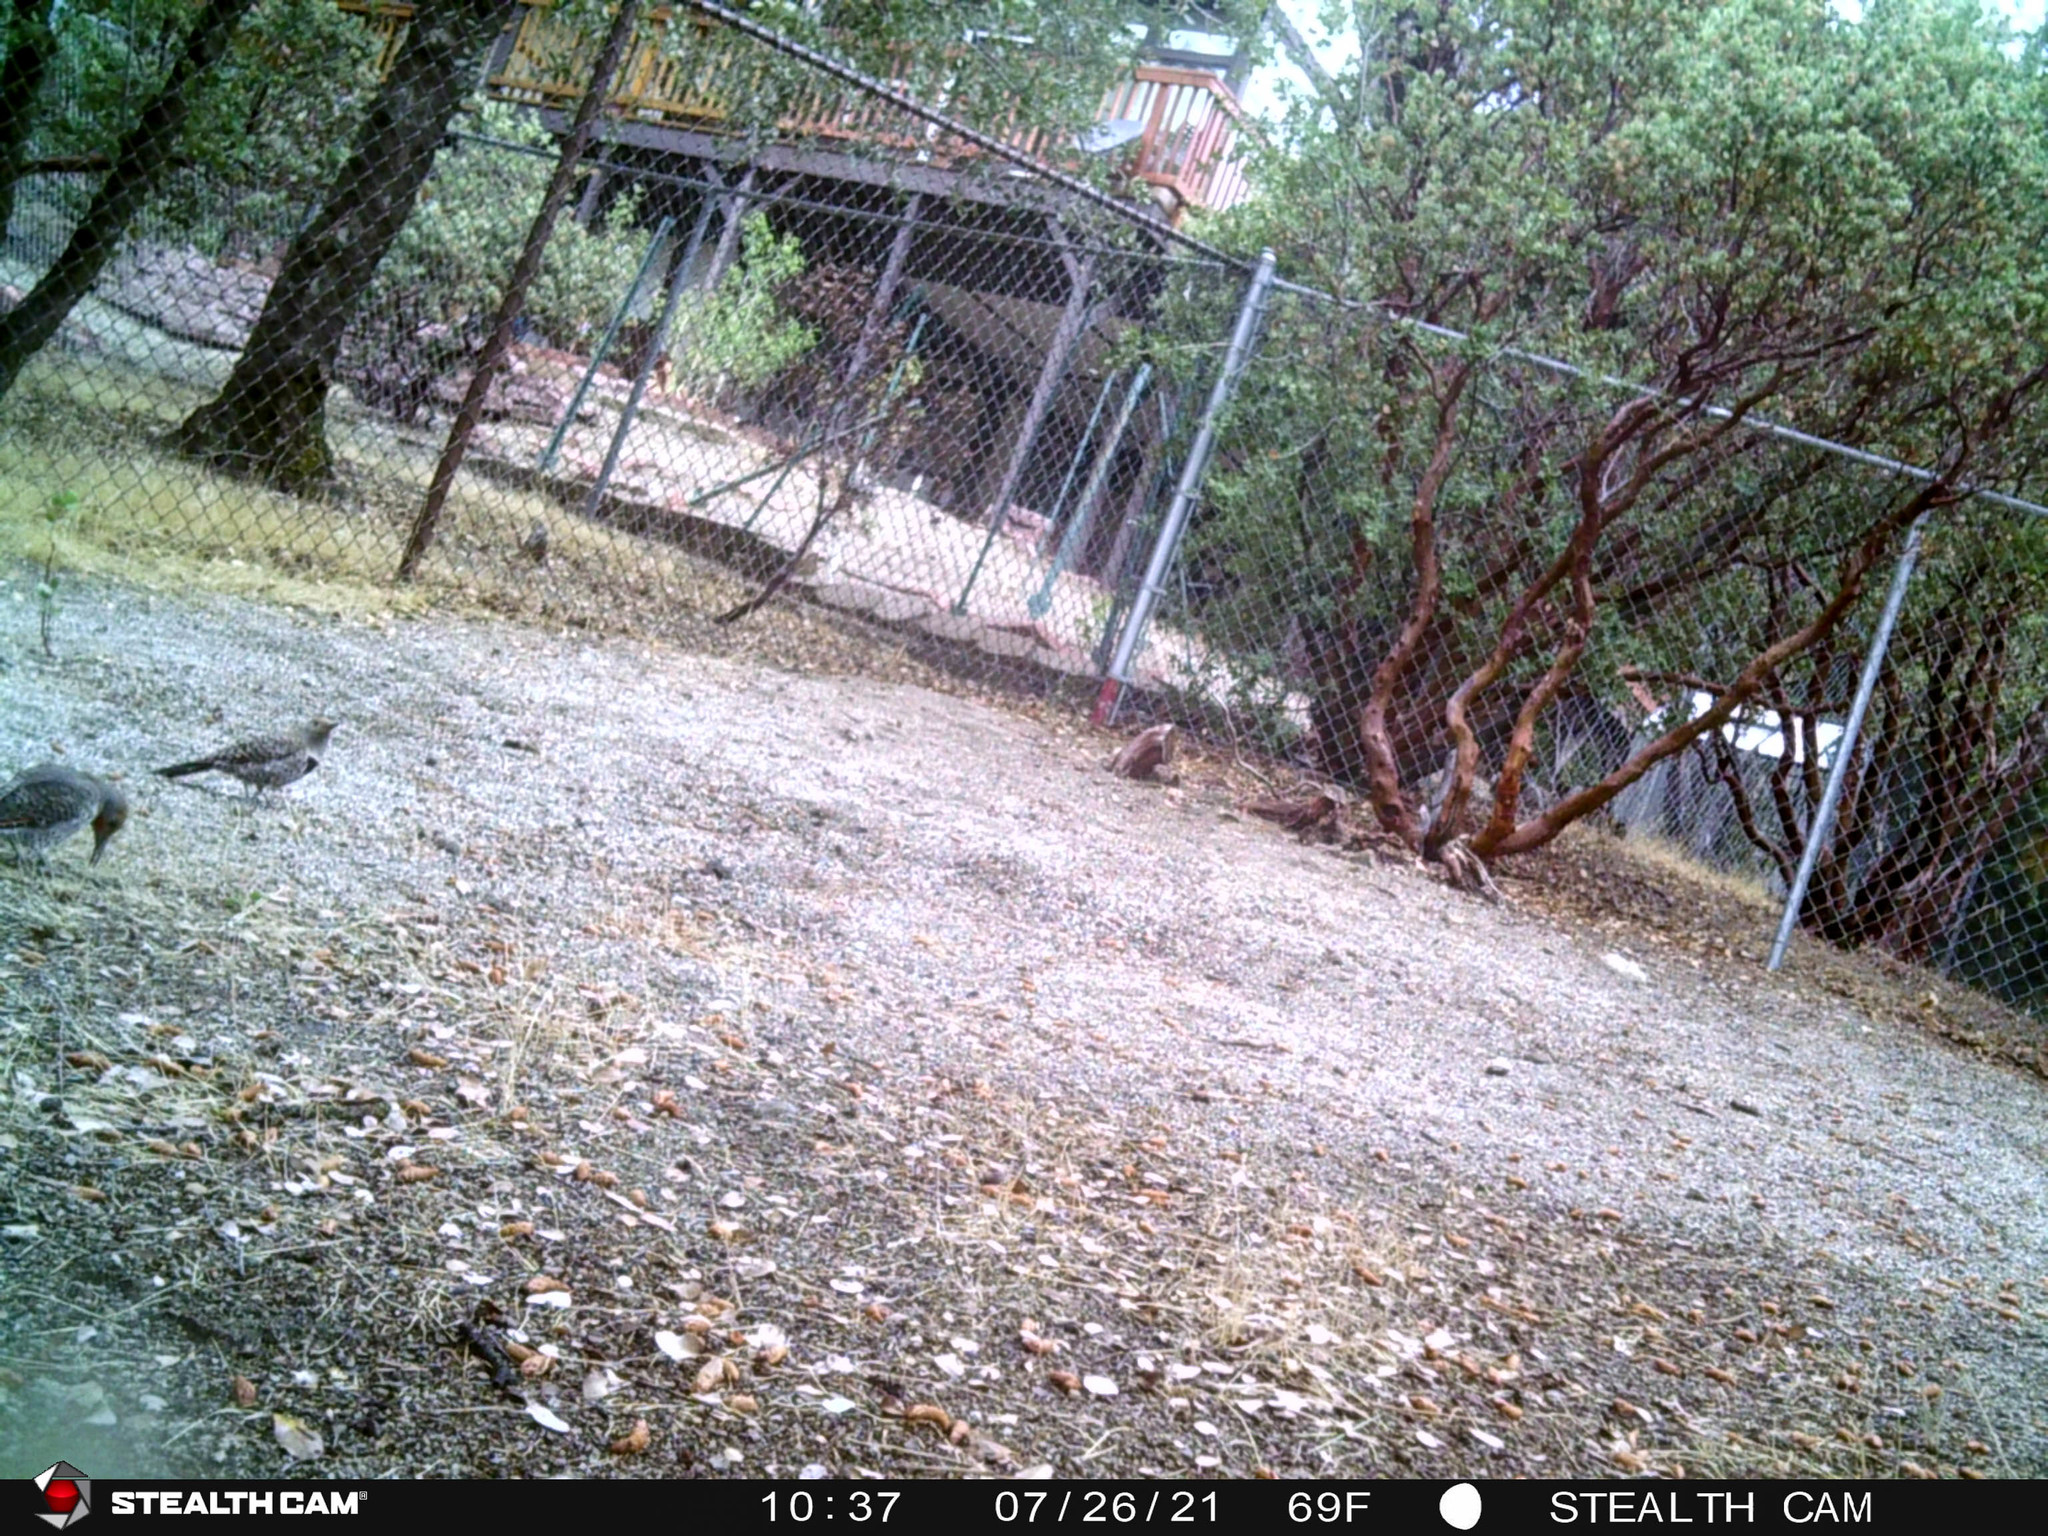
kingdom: Animalia
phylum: Chordata
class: Aves
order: Piciformes
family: Picidae
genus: Colaptes
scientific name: Colaptes auratus
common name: Northern flicker
